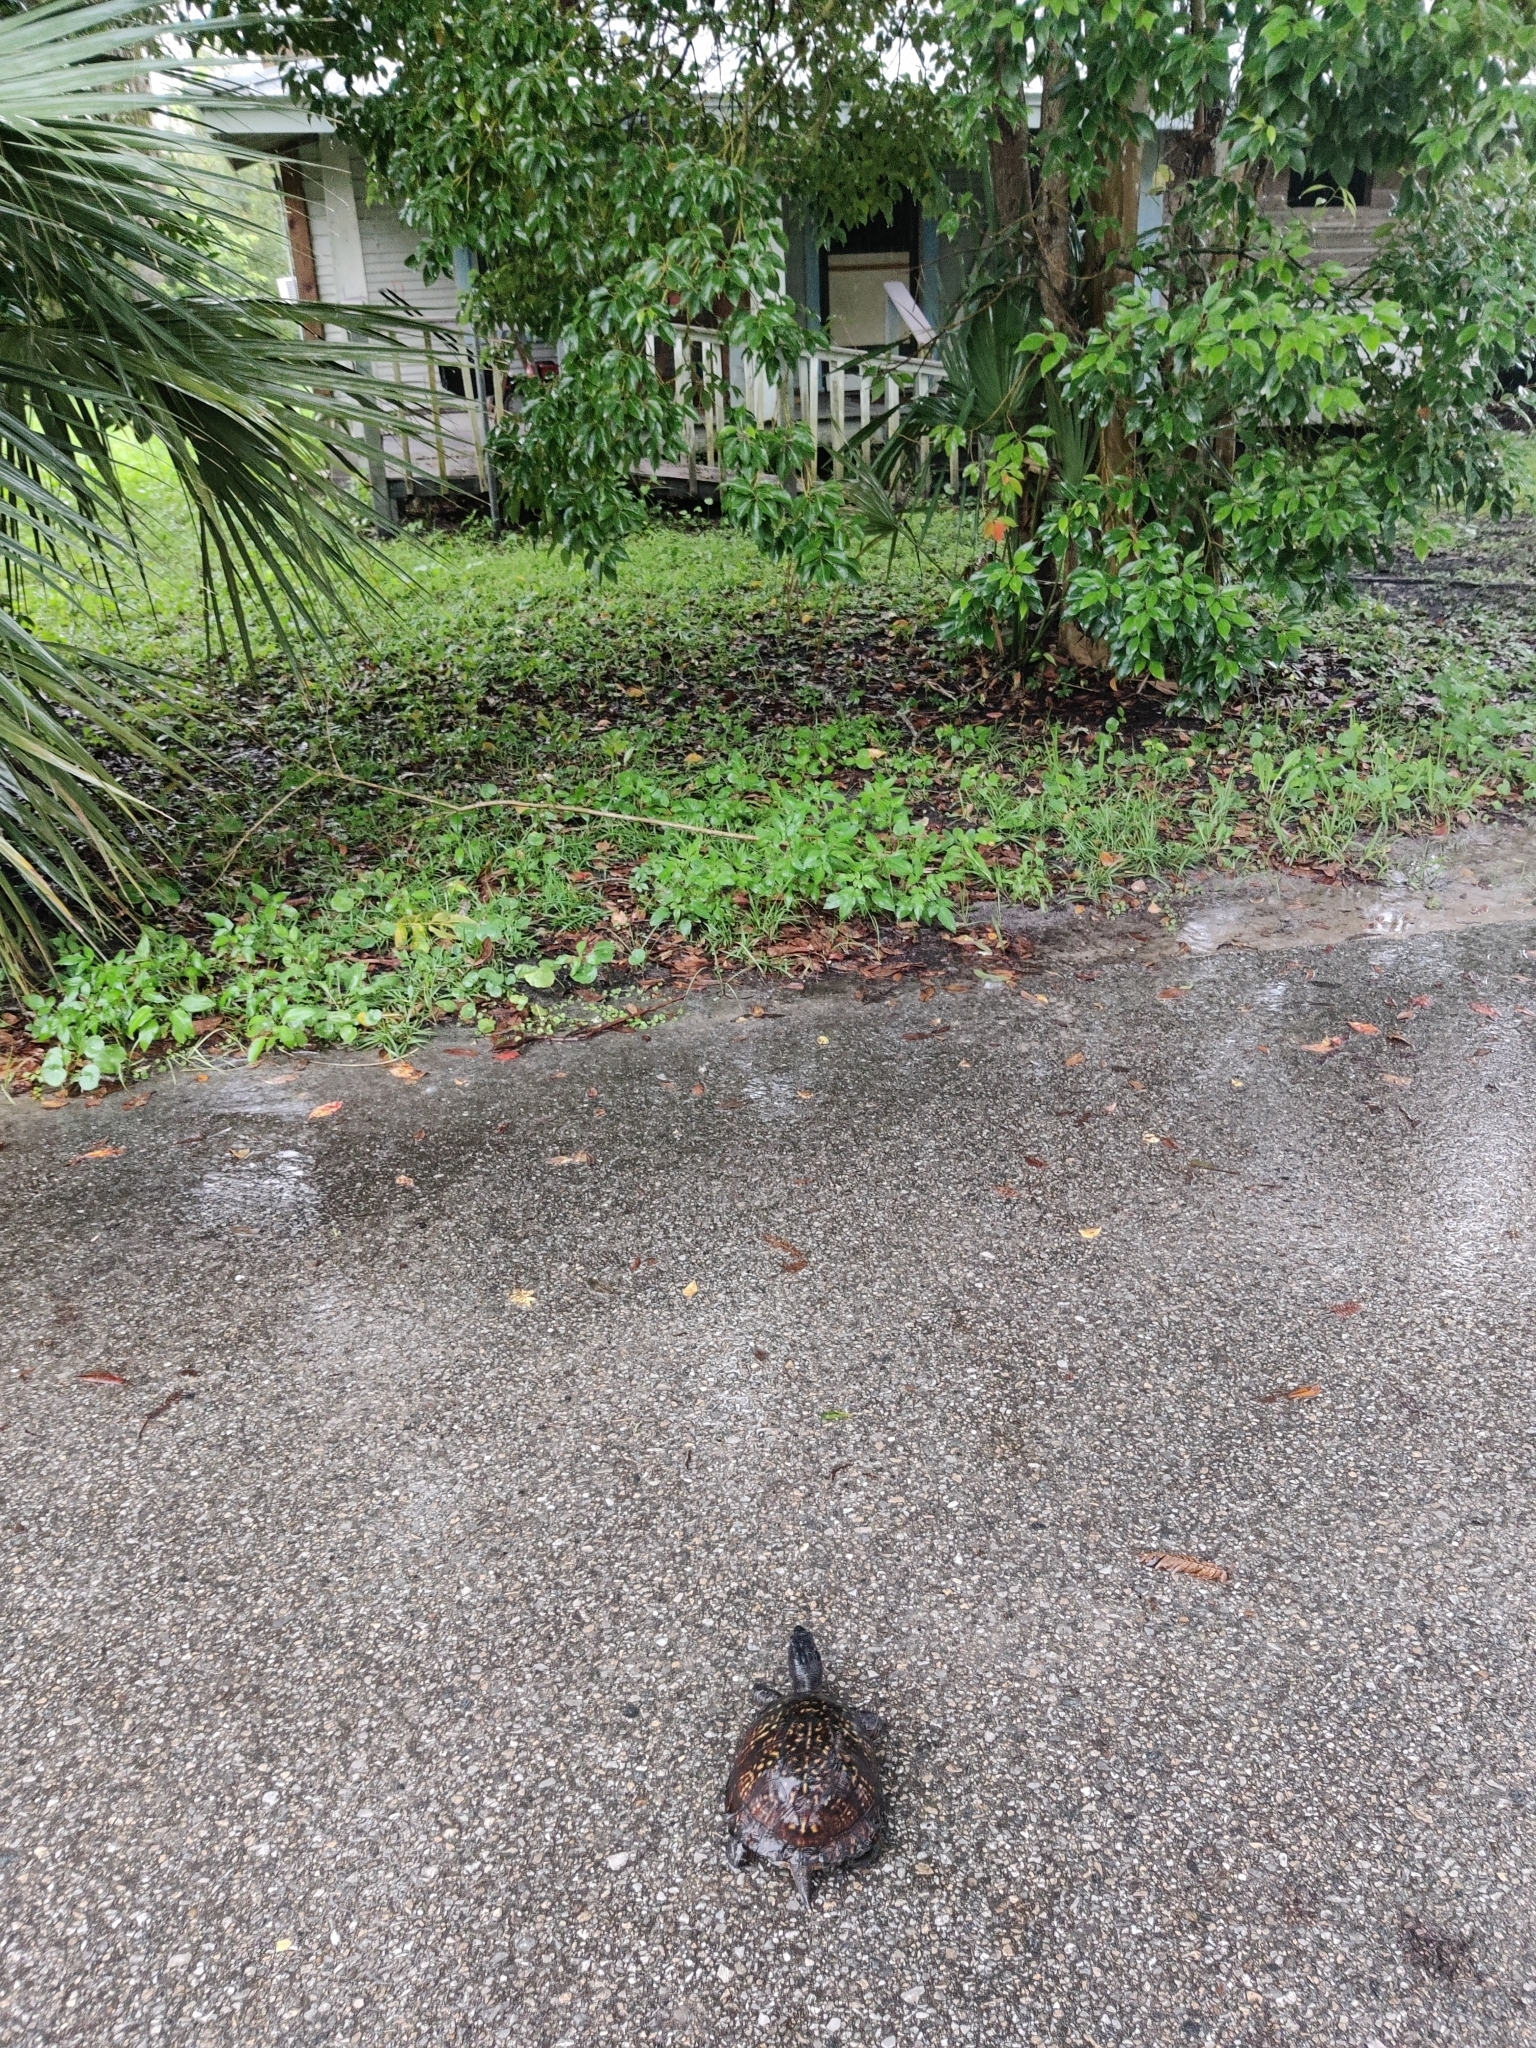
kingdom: Animalia
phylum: Chordata
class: Testudines
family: Emydidae
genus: Terrapene
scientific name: Terrapene carolina
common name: Common box turtle
